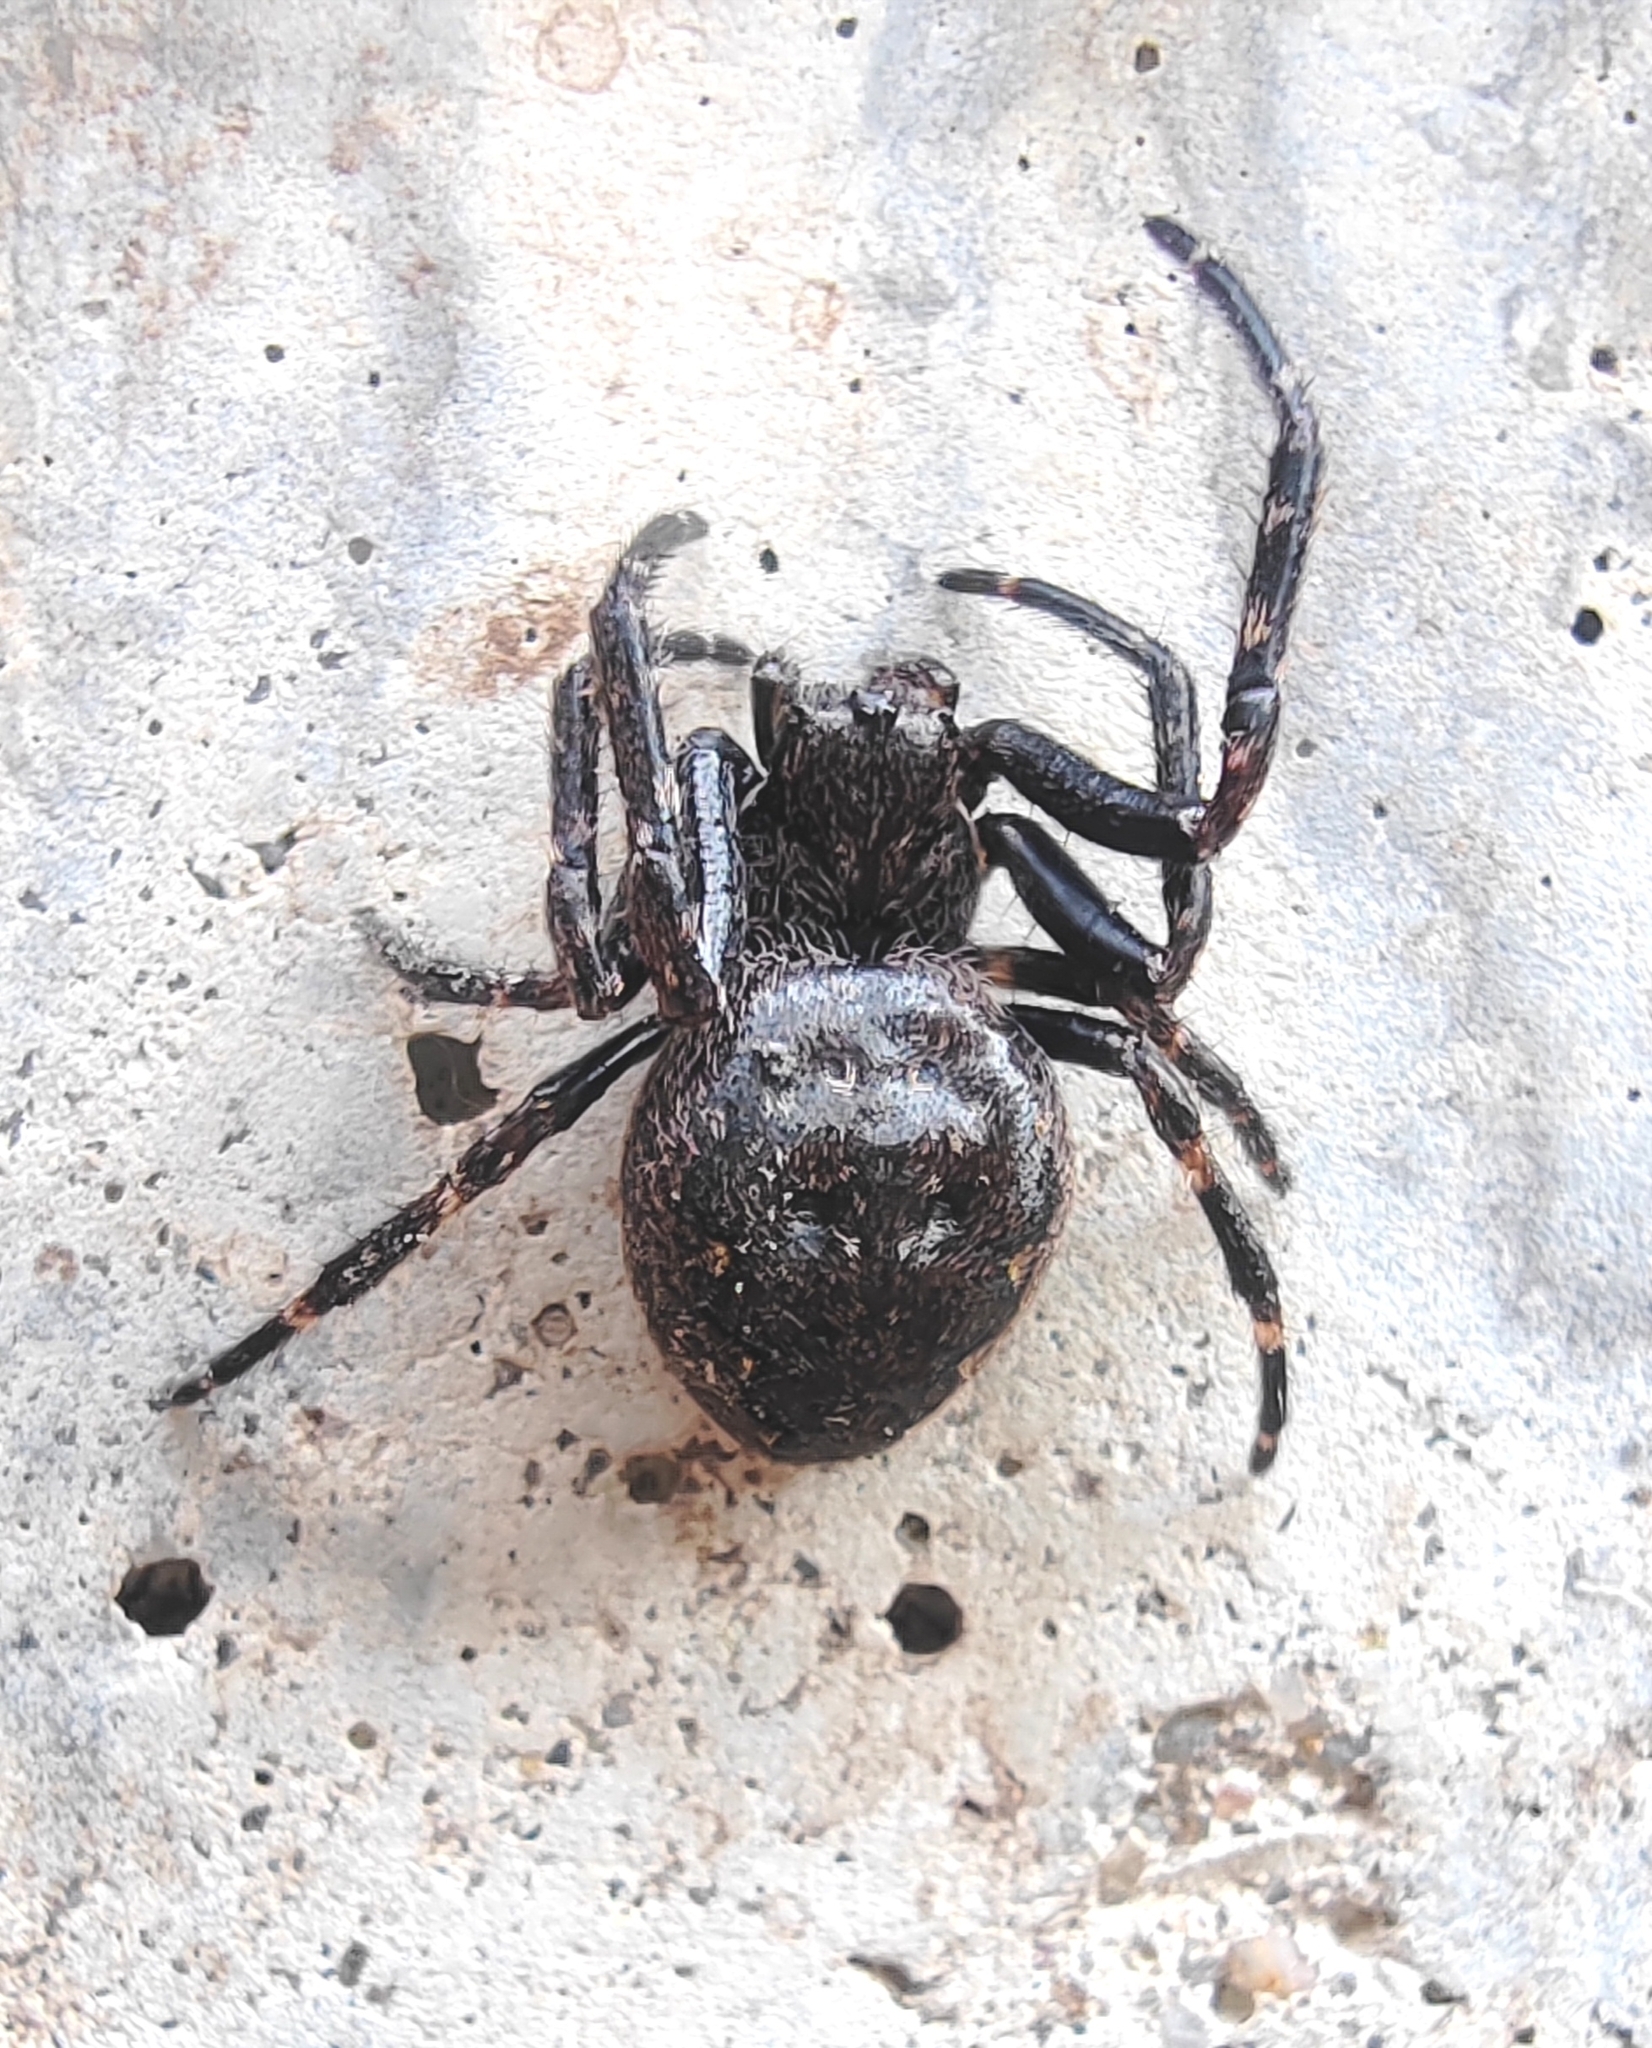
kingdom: Animalia
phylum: Arthropoda
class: Arachnida
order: Araneae
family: Araneidae
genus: Nuctenea
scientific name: Nuctenea umbratica
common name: Toad spider
